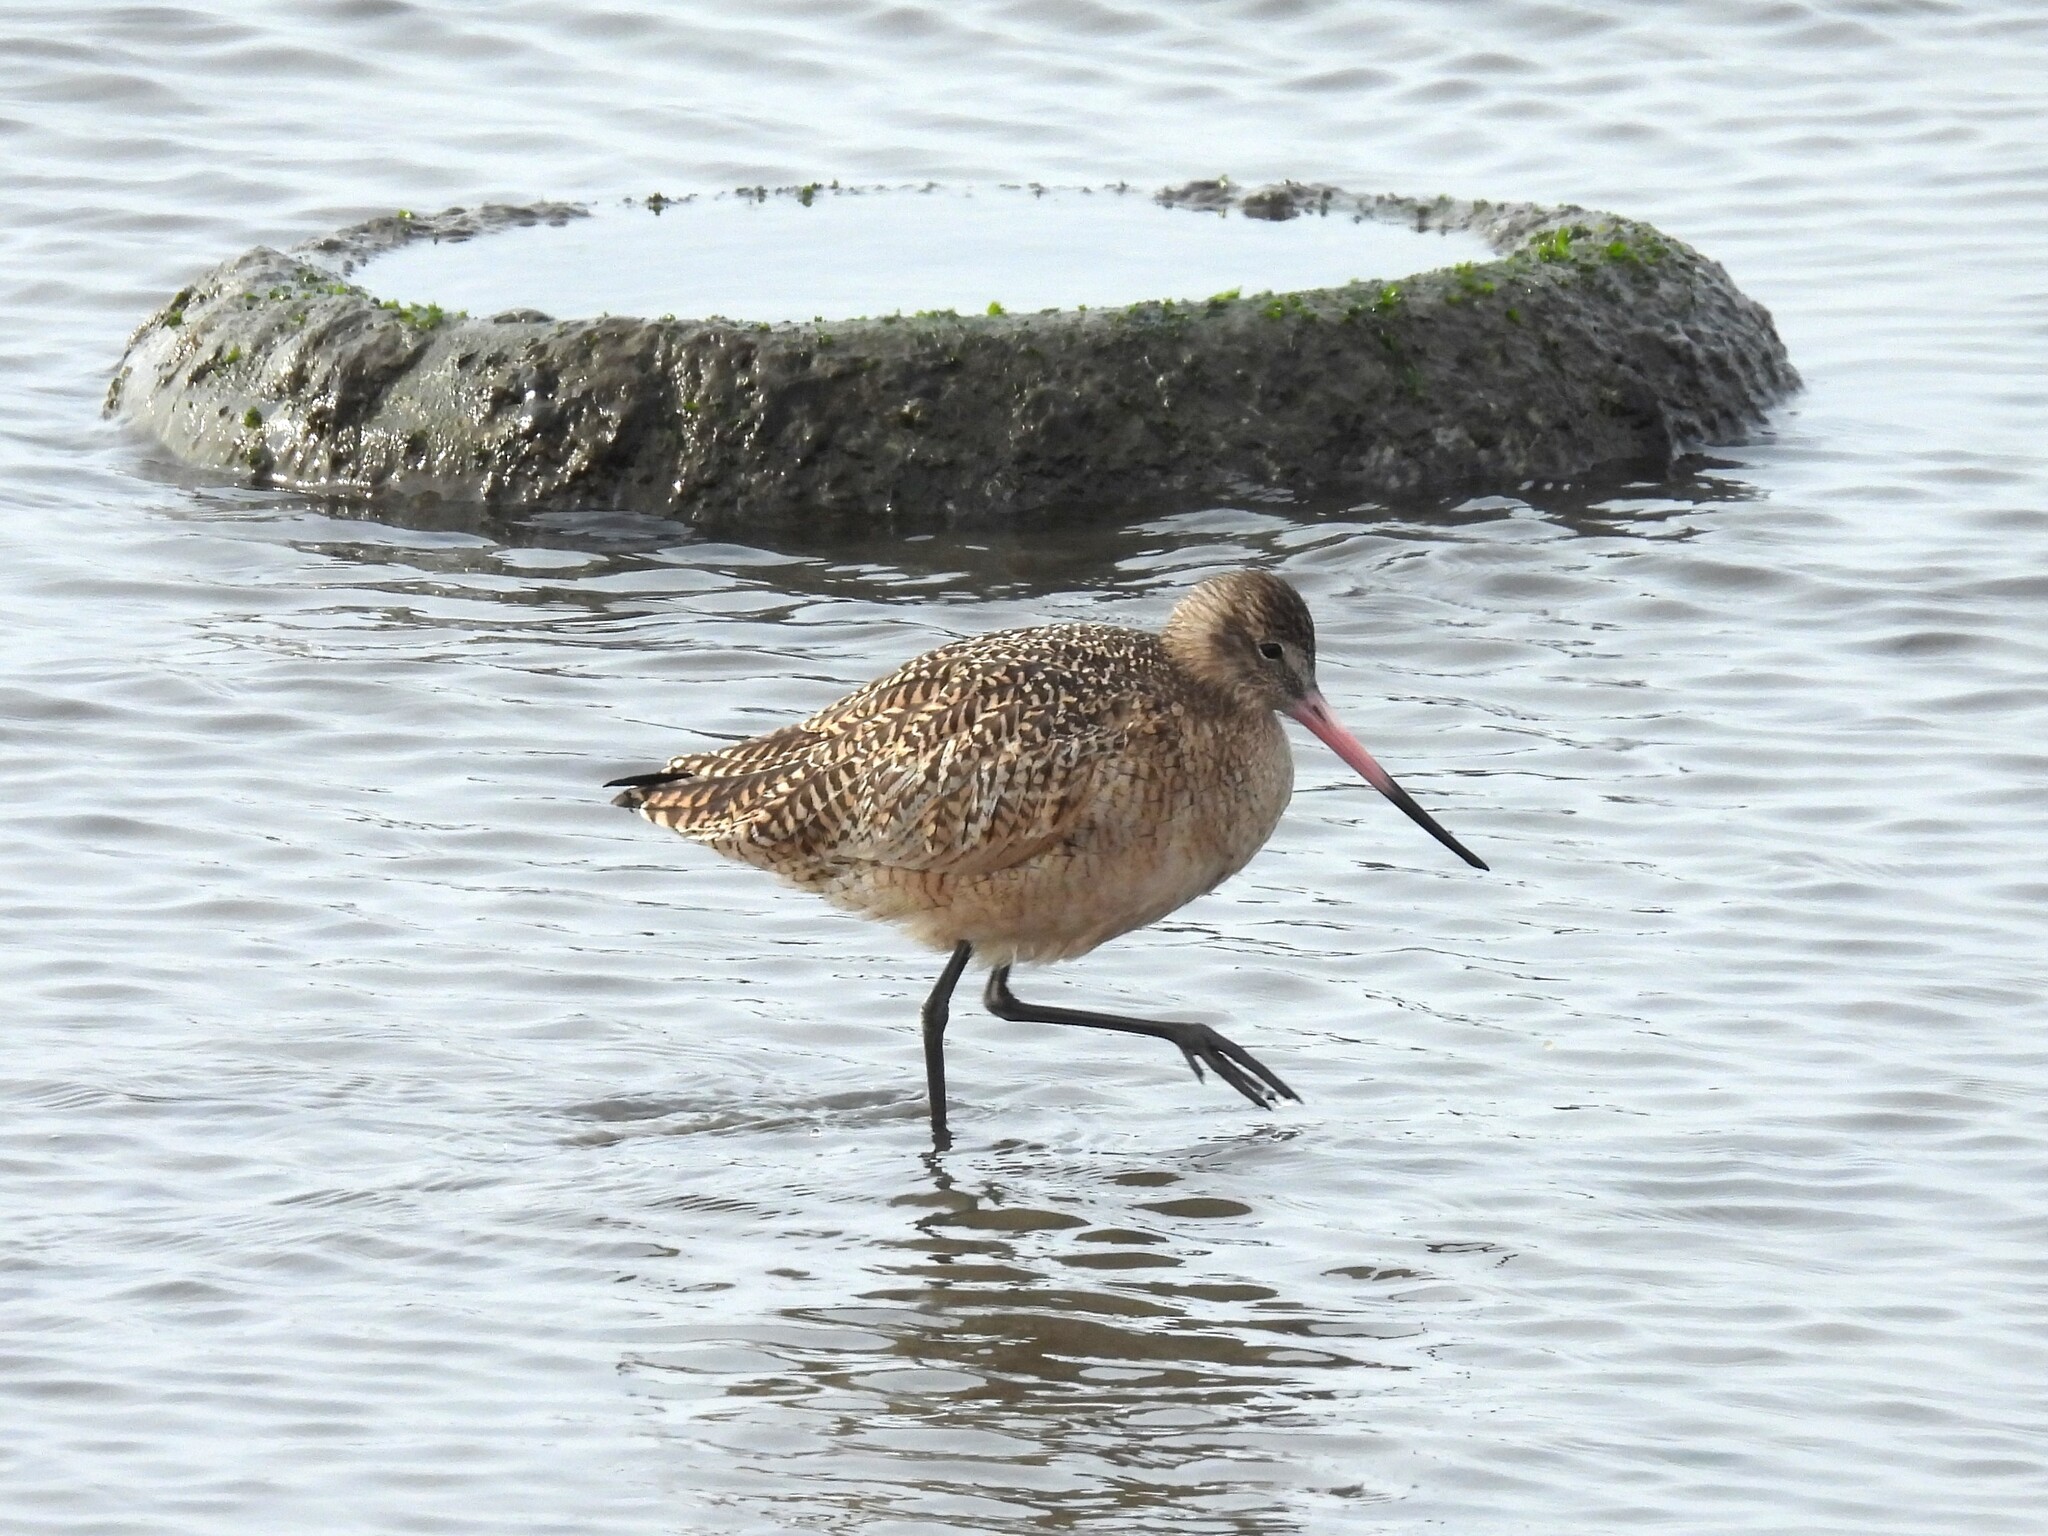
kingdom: Animalia
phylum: Chordata
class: Aves
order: Charadriiformes
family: Scolopacidae
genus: Limosa
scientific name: Limosa fedoa
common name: Marbled godwit
